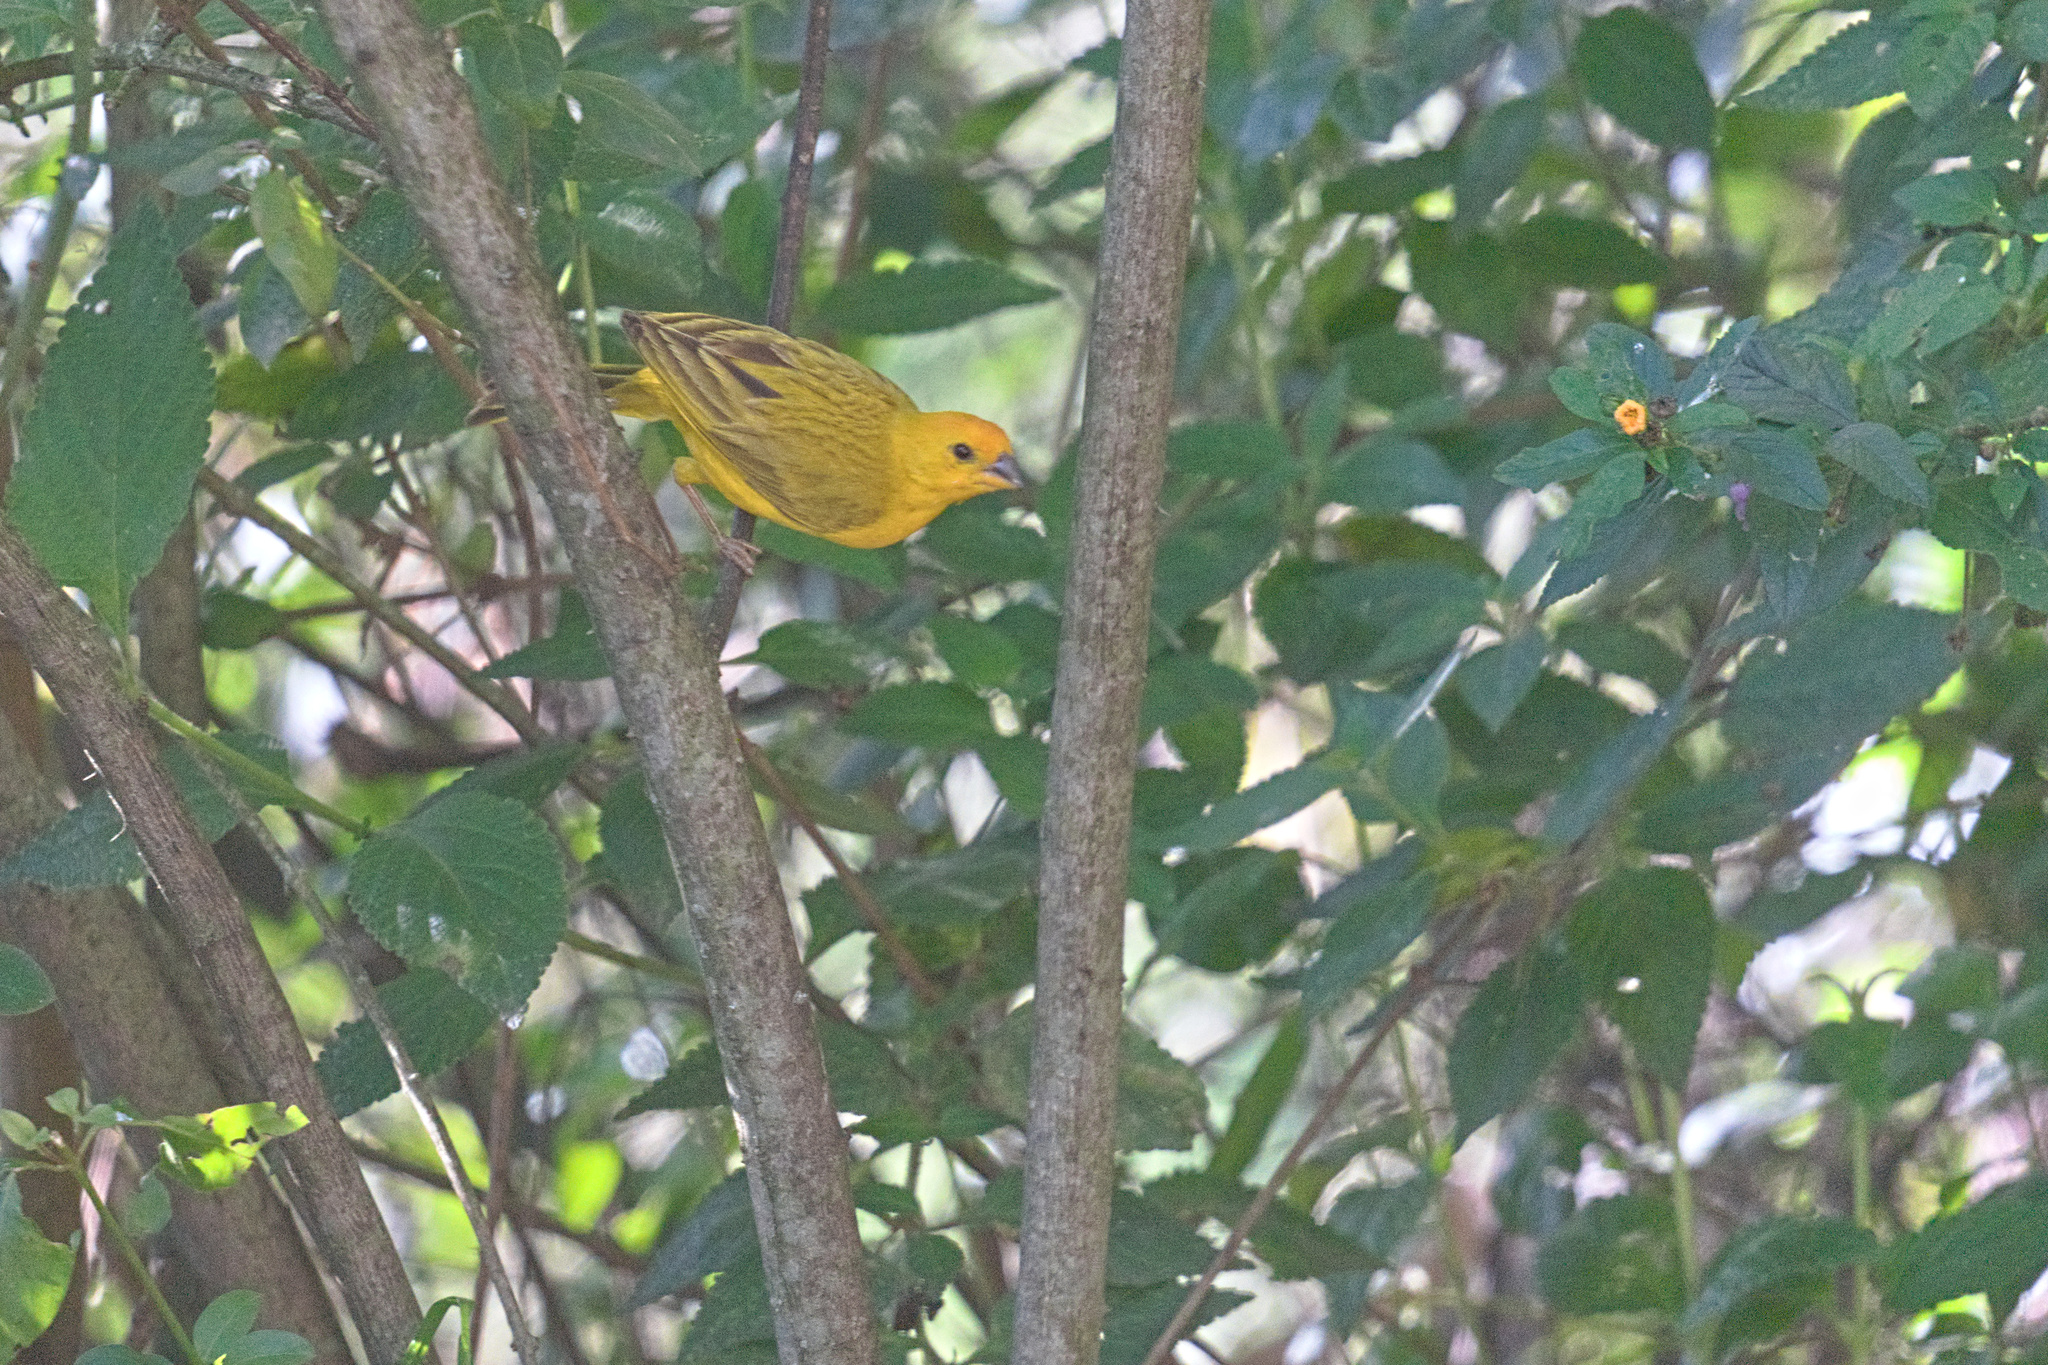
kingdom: Animalia
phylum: Chordata
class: Aves
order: Passeriformes
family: Thraupidae
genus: Sicalis
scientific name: Sicalis flaveola
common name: Saffron finch
